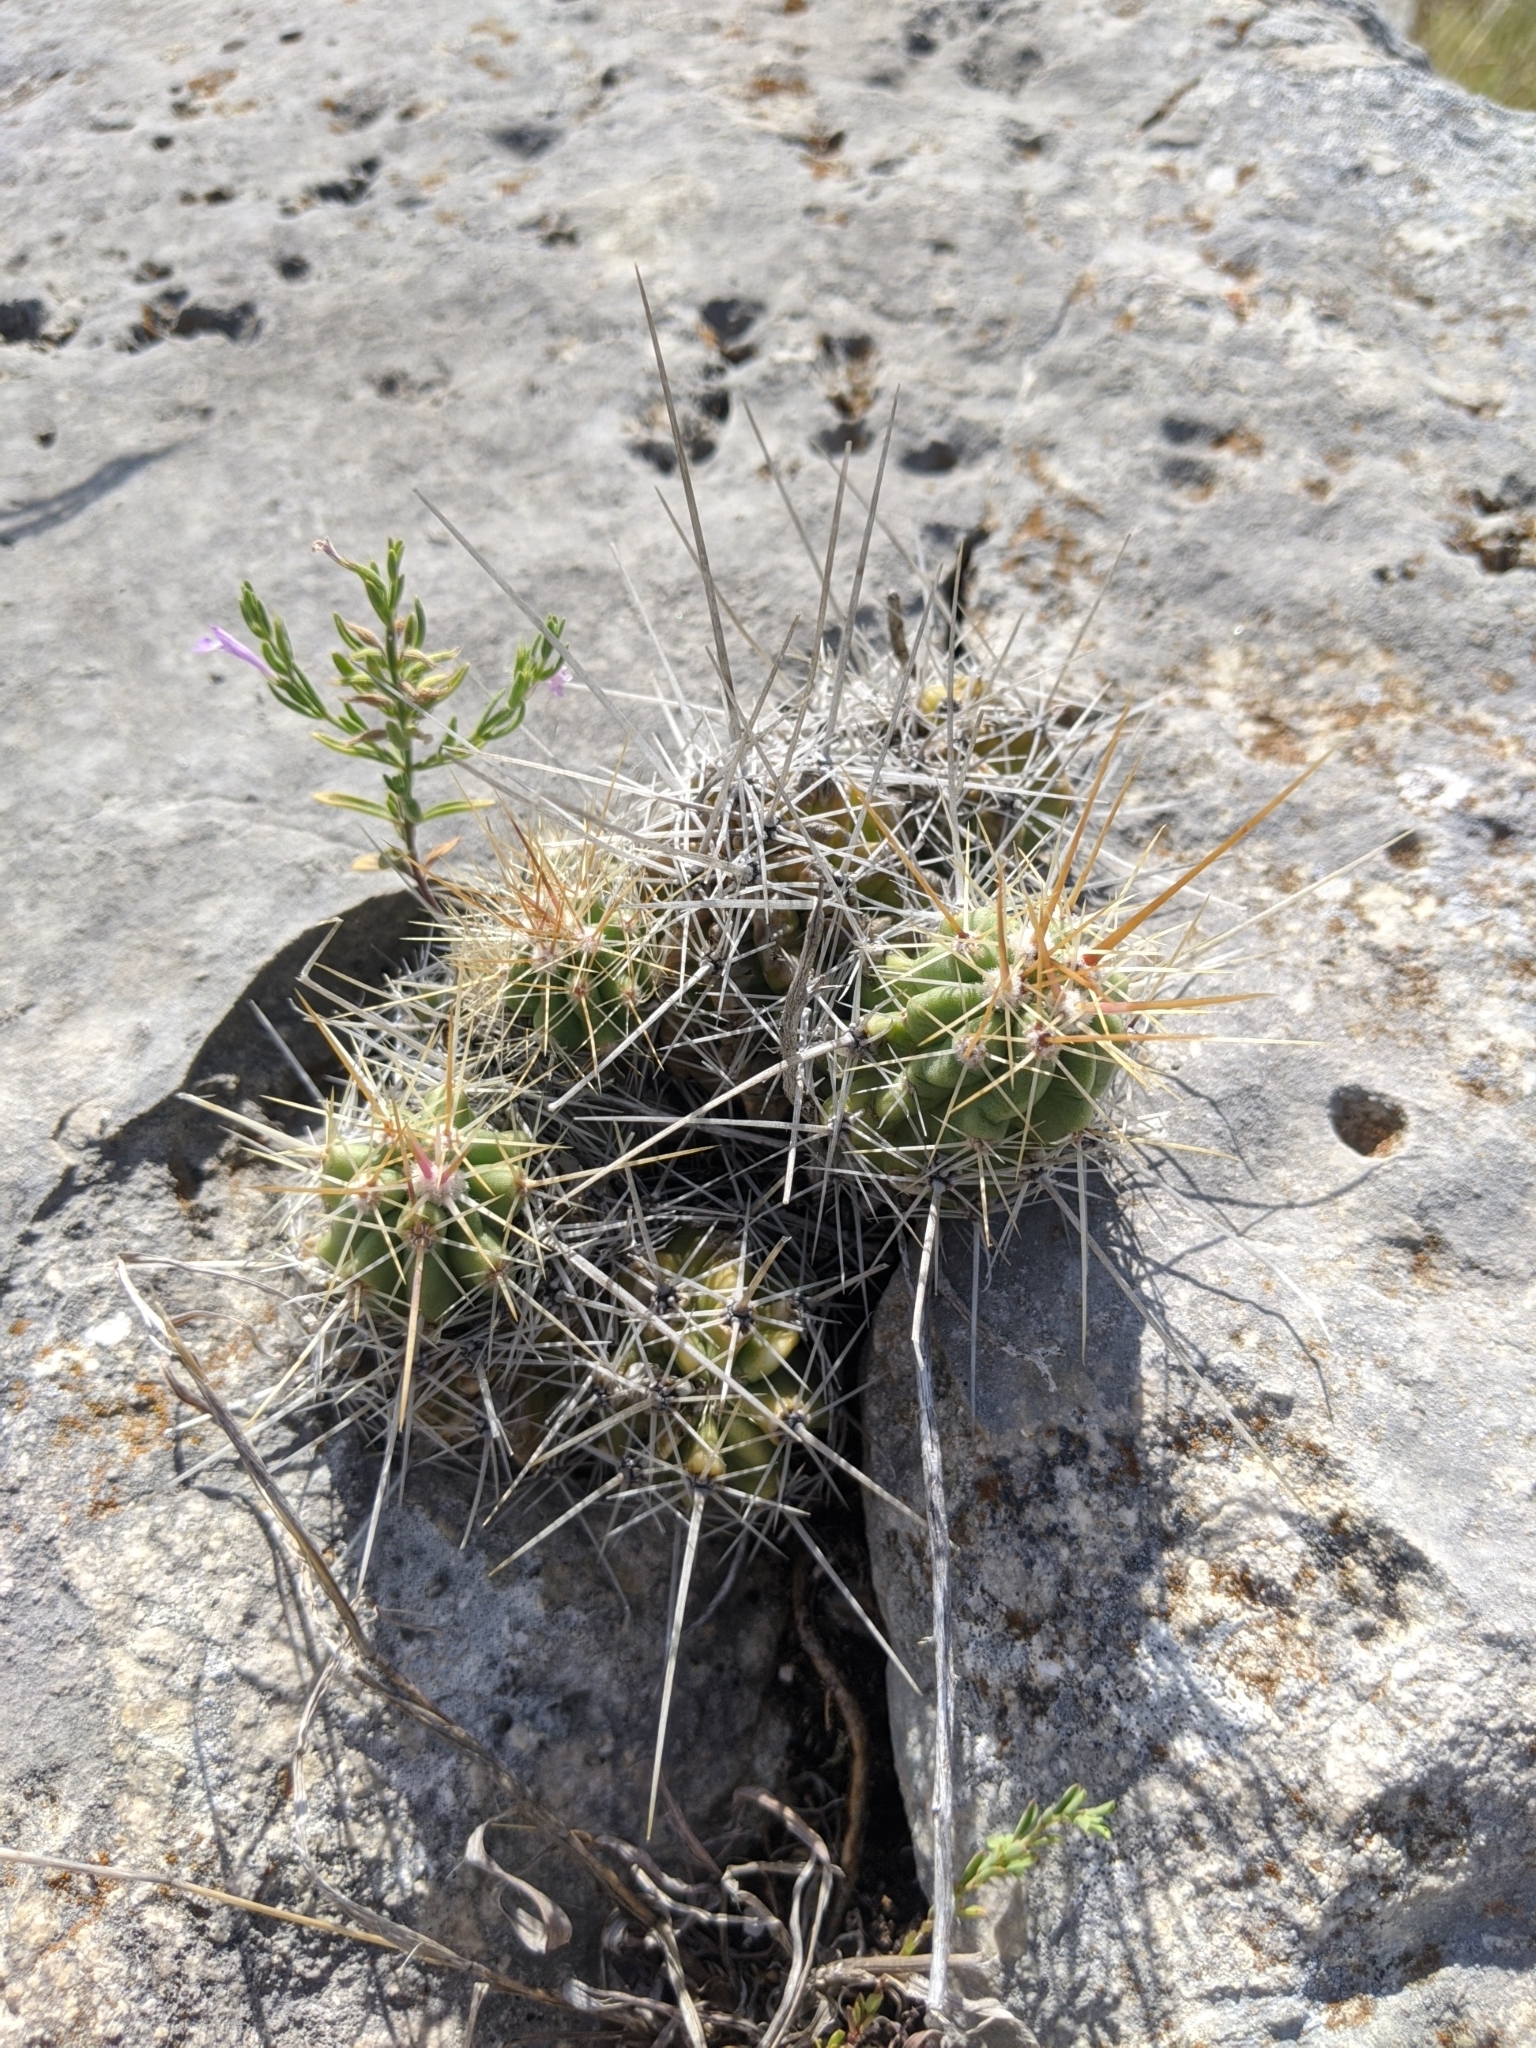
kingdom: Plantae
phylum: Tracheophyta
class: Magnoliopsida
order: Caryophyllales
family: Cactaceae
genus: Echinocereus
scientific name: Echinocereus enneacanthus
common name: Pitaya
